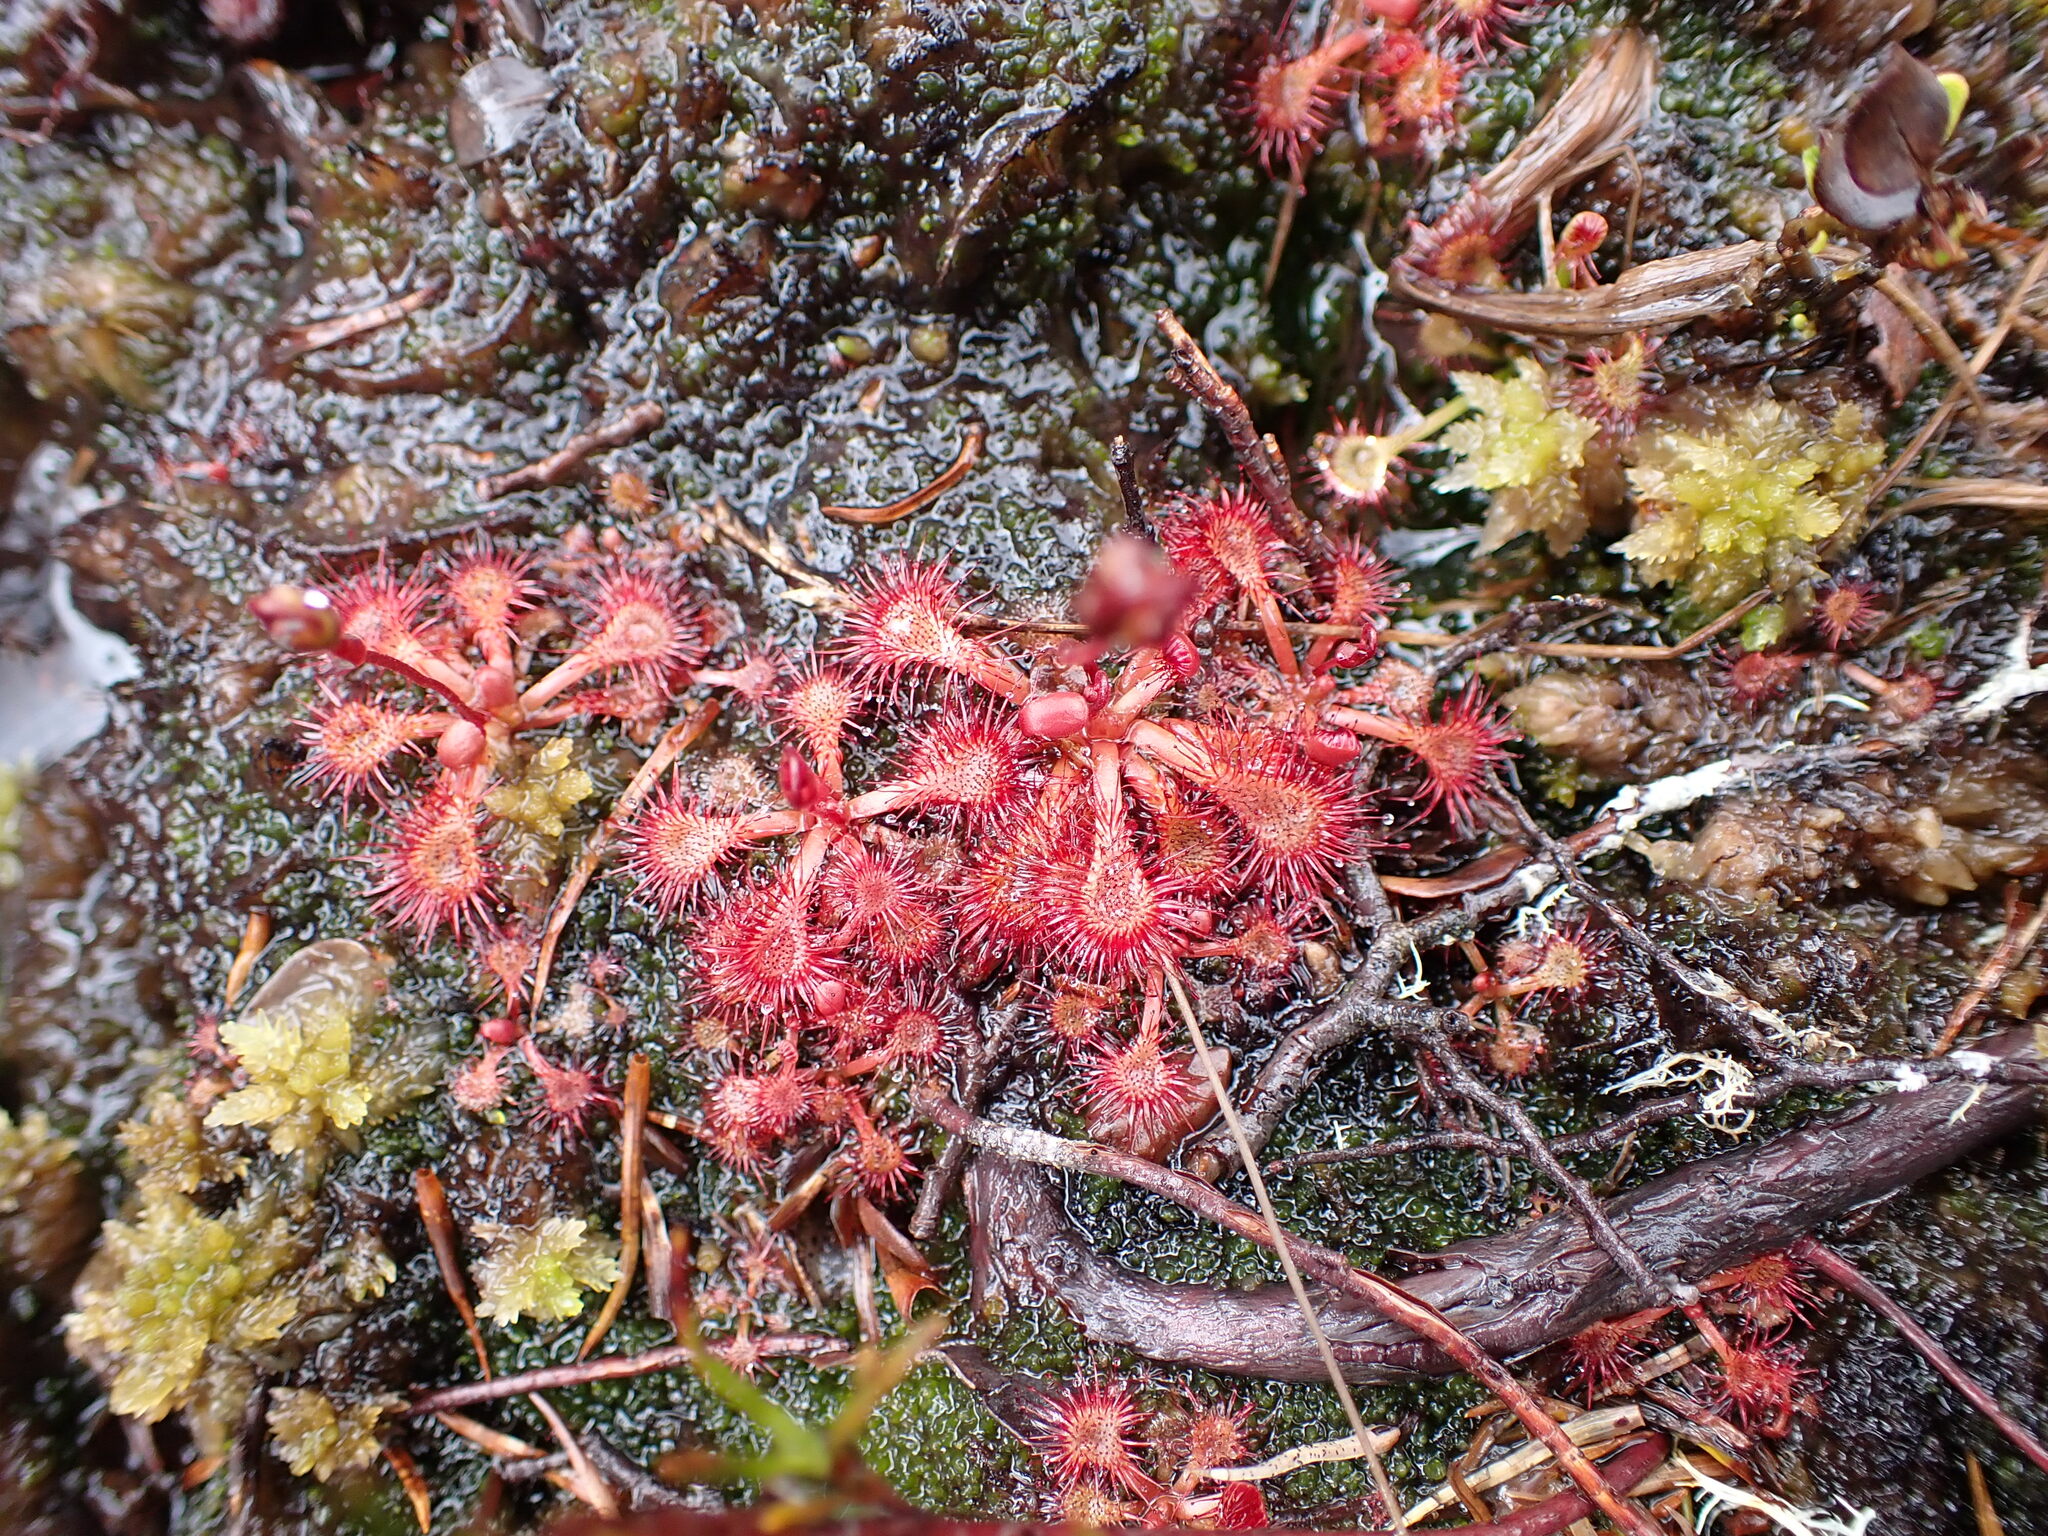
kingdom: Plantae
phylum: Tracheophyta
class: Magnoliopsida
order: Caryophyllales
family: Droseraceae
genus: Drosera
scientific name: Drosera spatulata
